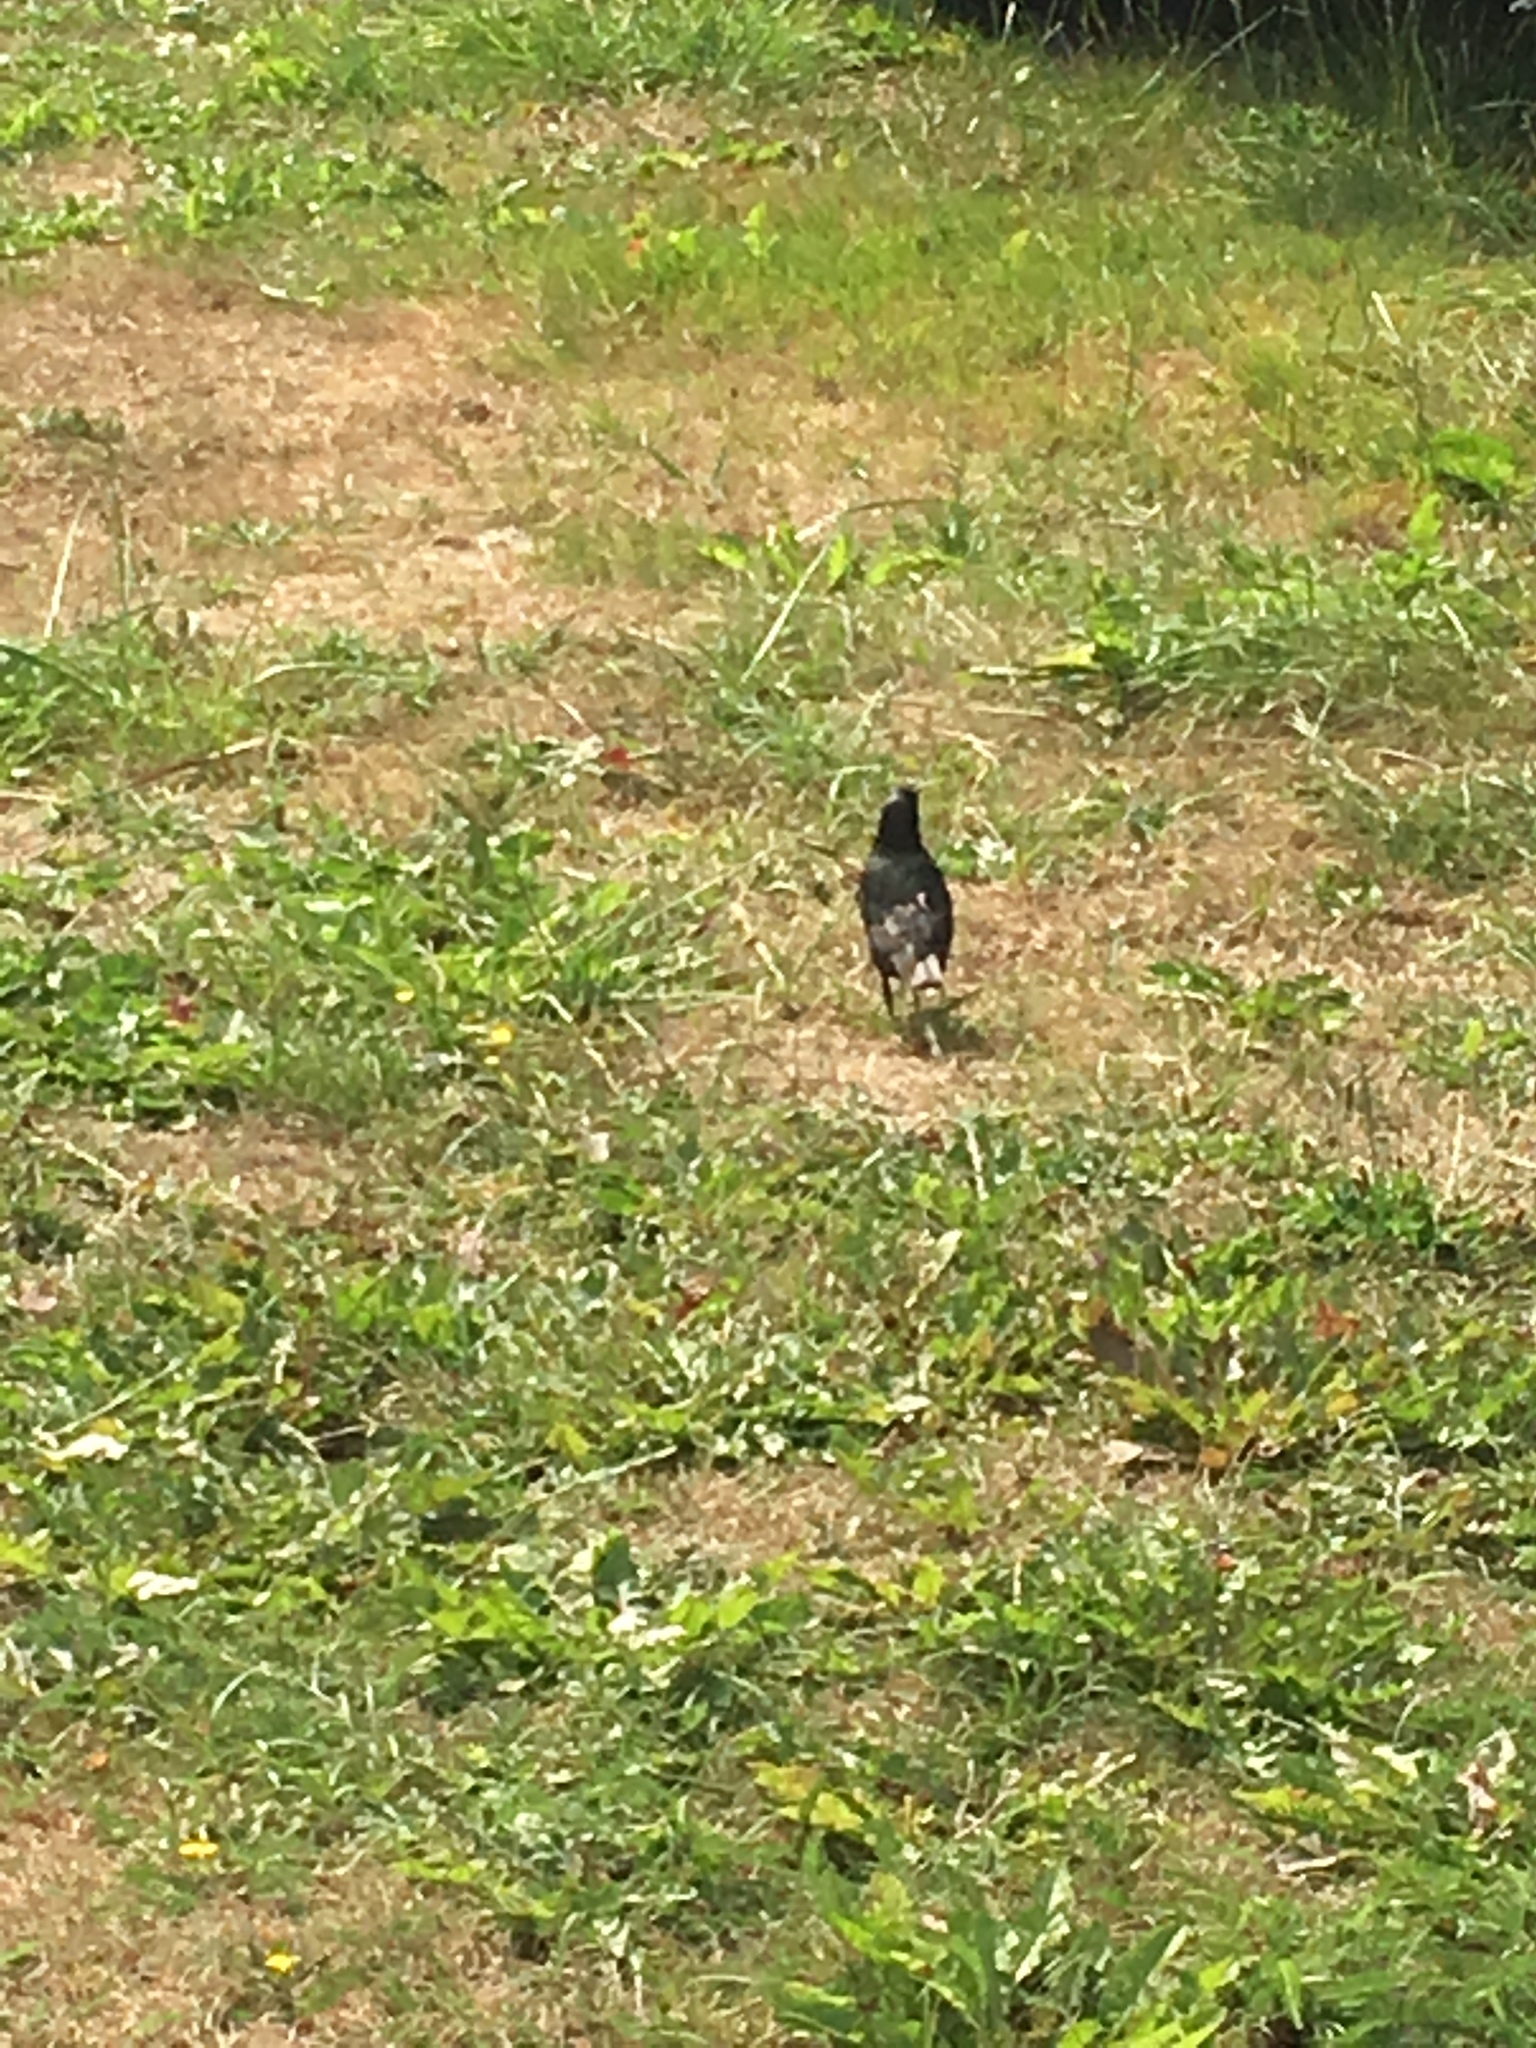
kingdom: Animalia
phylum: Chordata
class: Aves
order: Passeriformes
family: Sturnidae
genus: Sturnus
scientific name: Sturnus vulgaris
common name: Common starling
